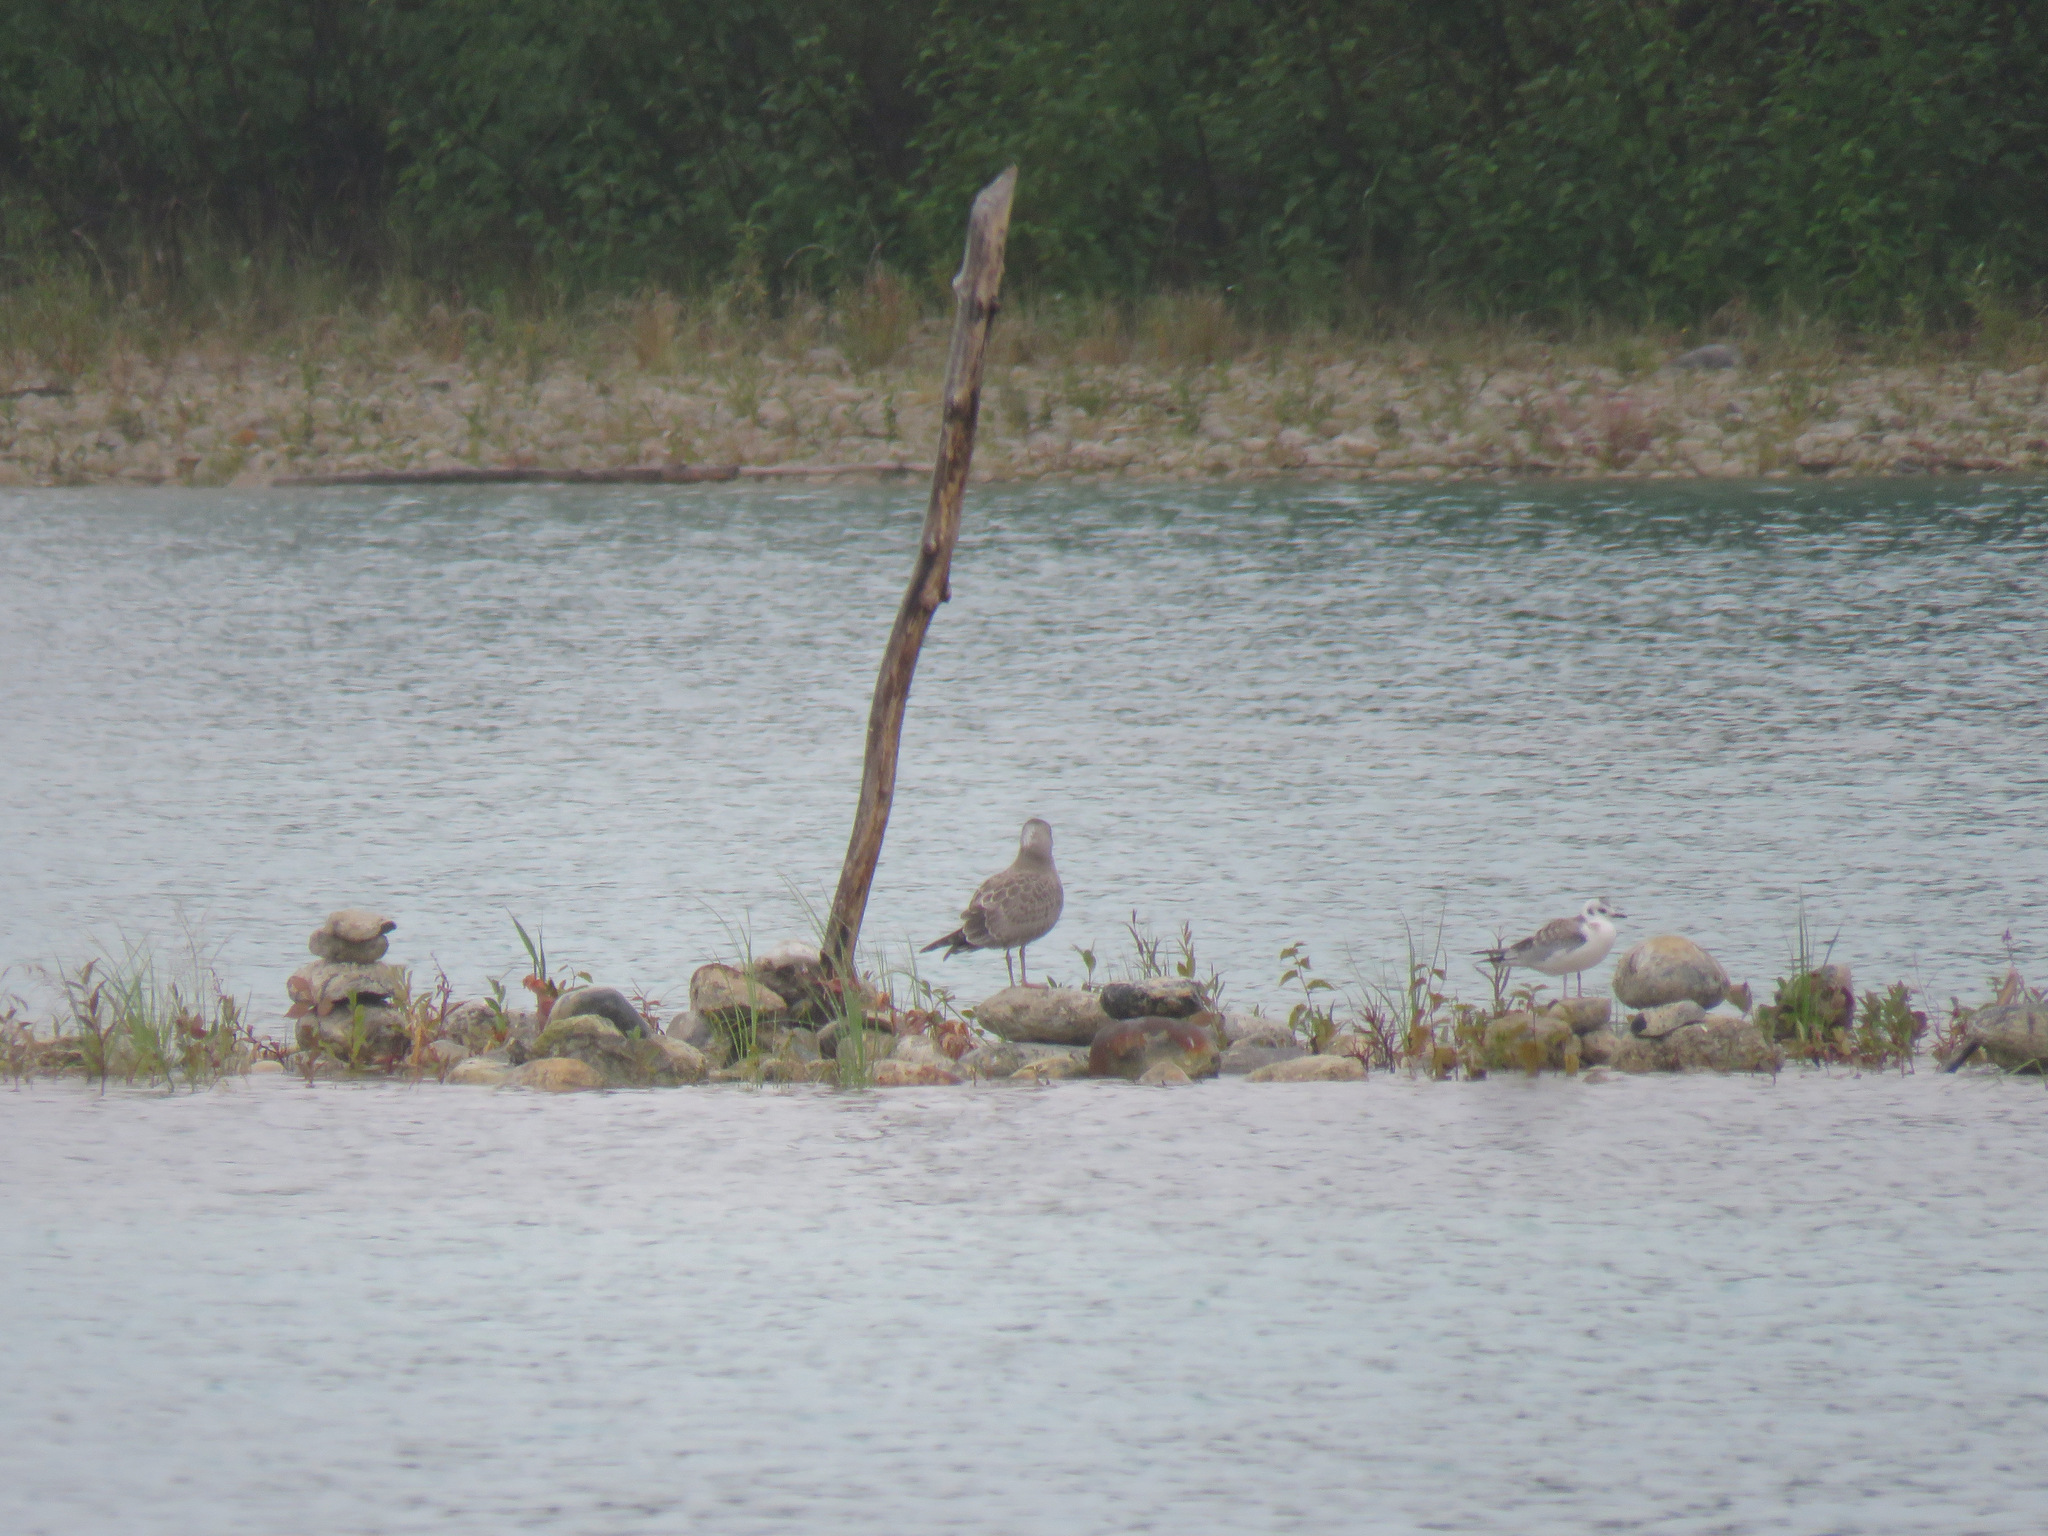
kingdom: Animalia
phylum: Chordata
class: Aves
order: Charadriiformes
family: Laridae
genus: Chroicocephalus
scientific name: Chroicocephalus philadelphia
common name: Bonaparte's gull
